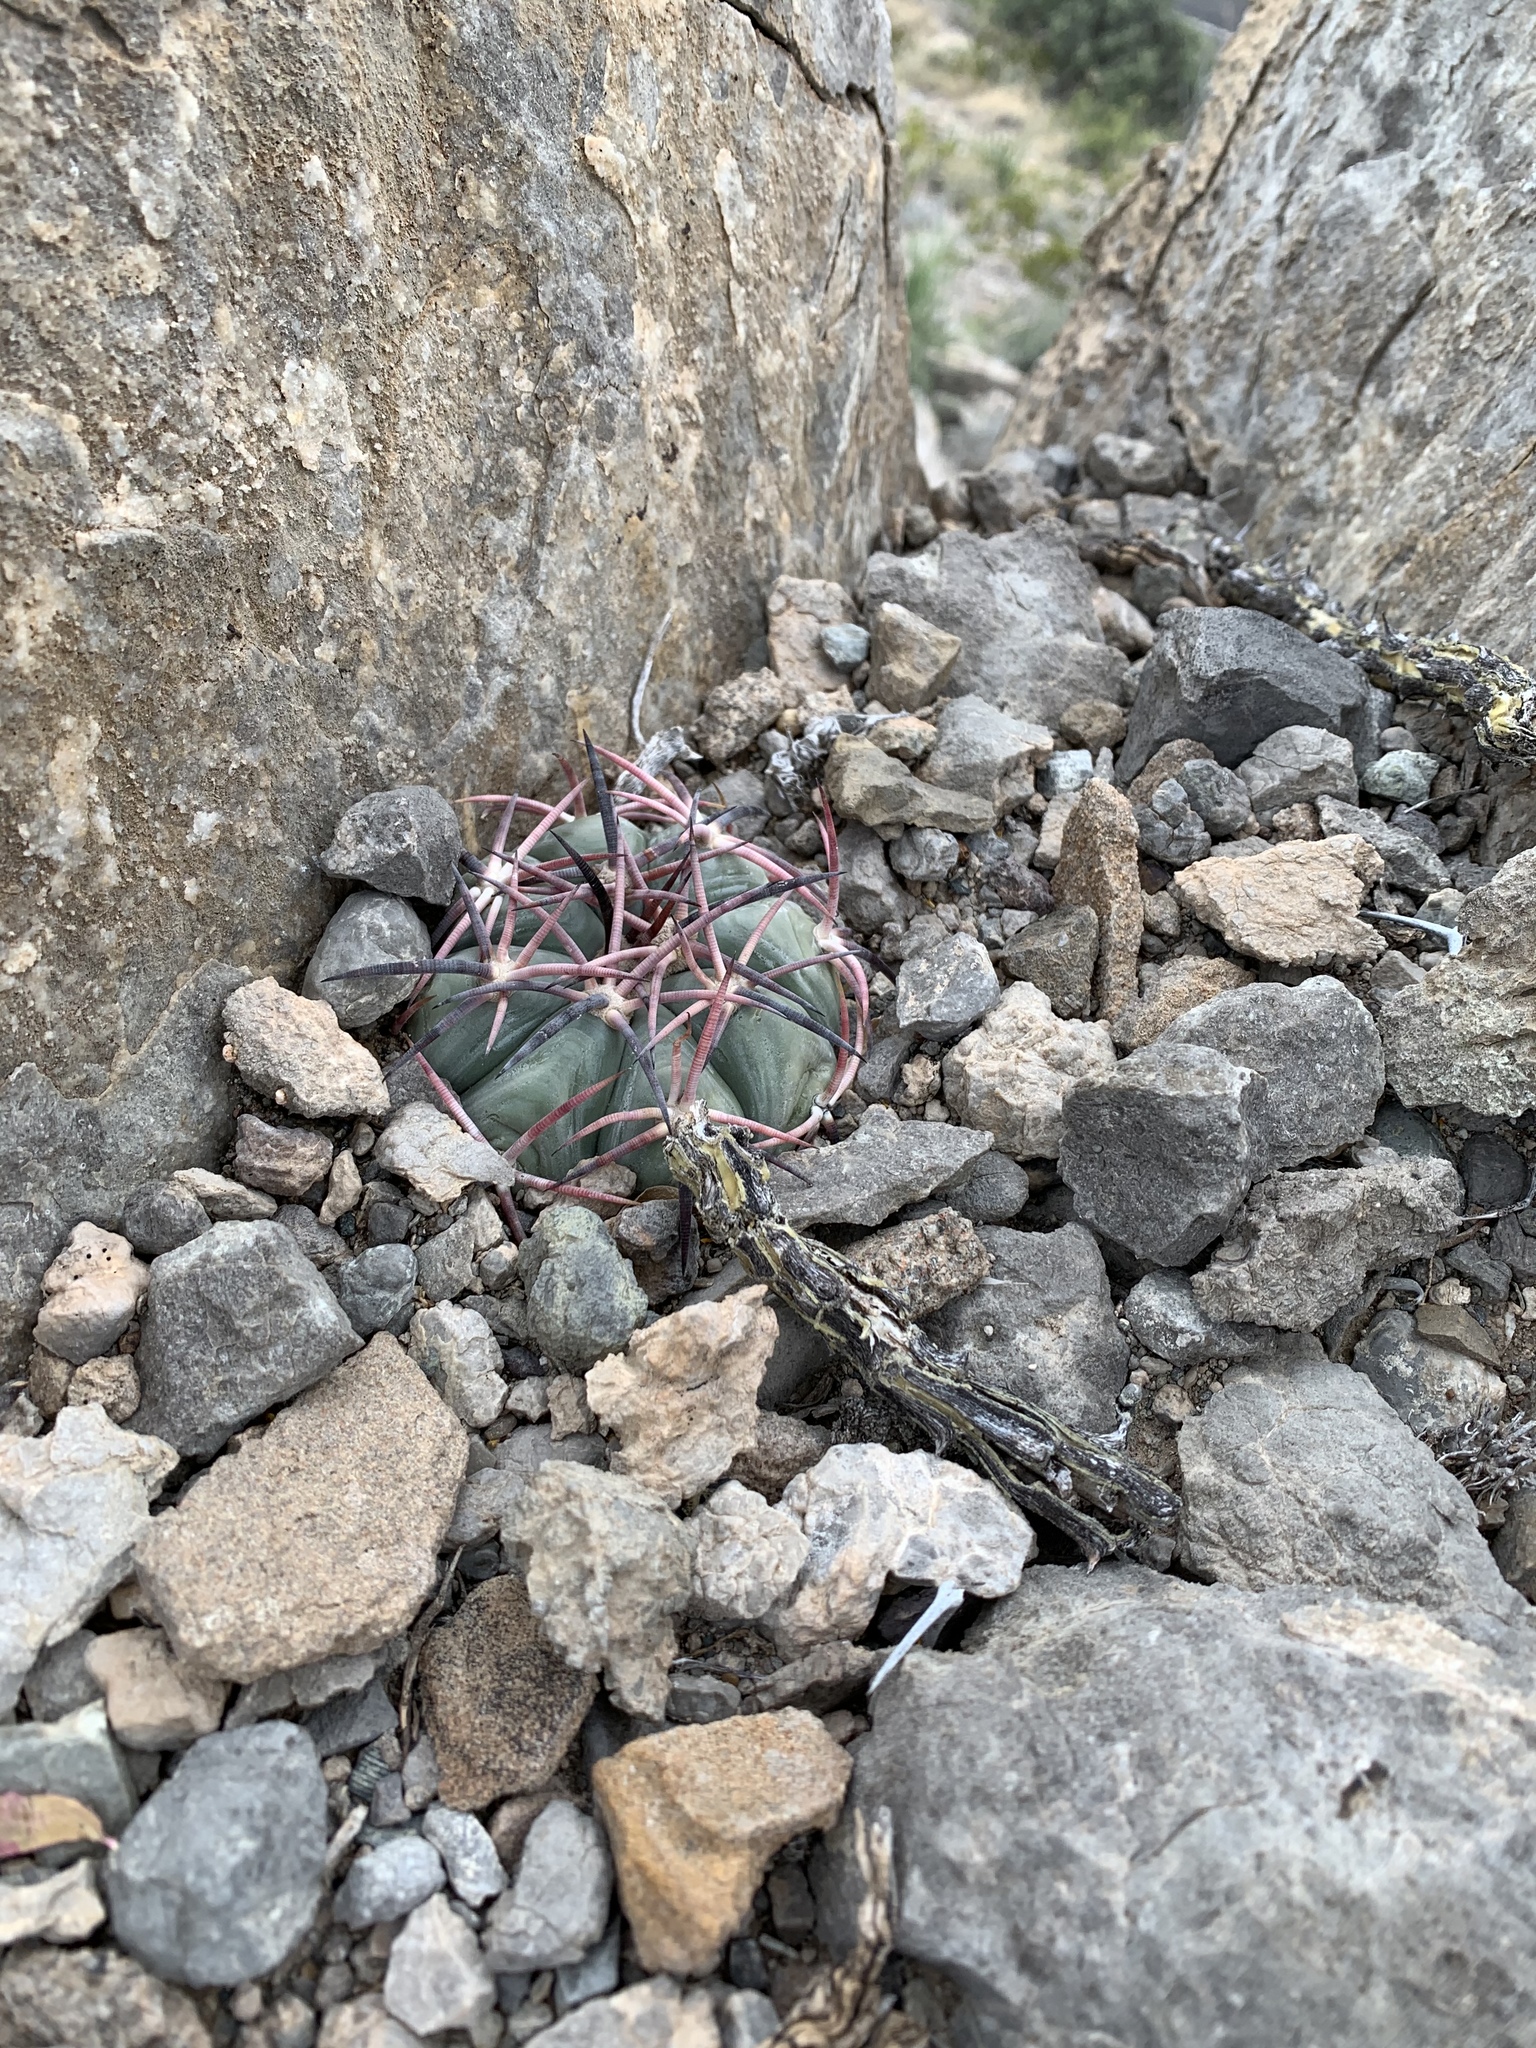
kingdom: Plantae
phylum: Tracheophyta
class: Magnoliopsida
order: Caryophyllales
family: Cactaceae
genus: Echinocactus
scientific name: Echinocactus horizonthalonius
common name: Devilshead
